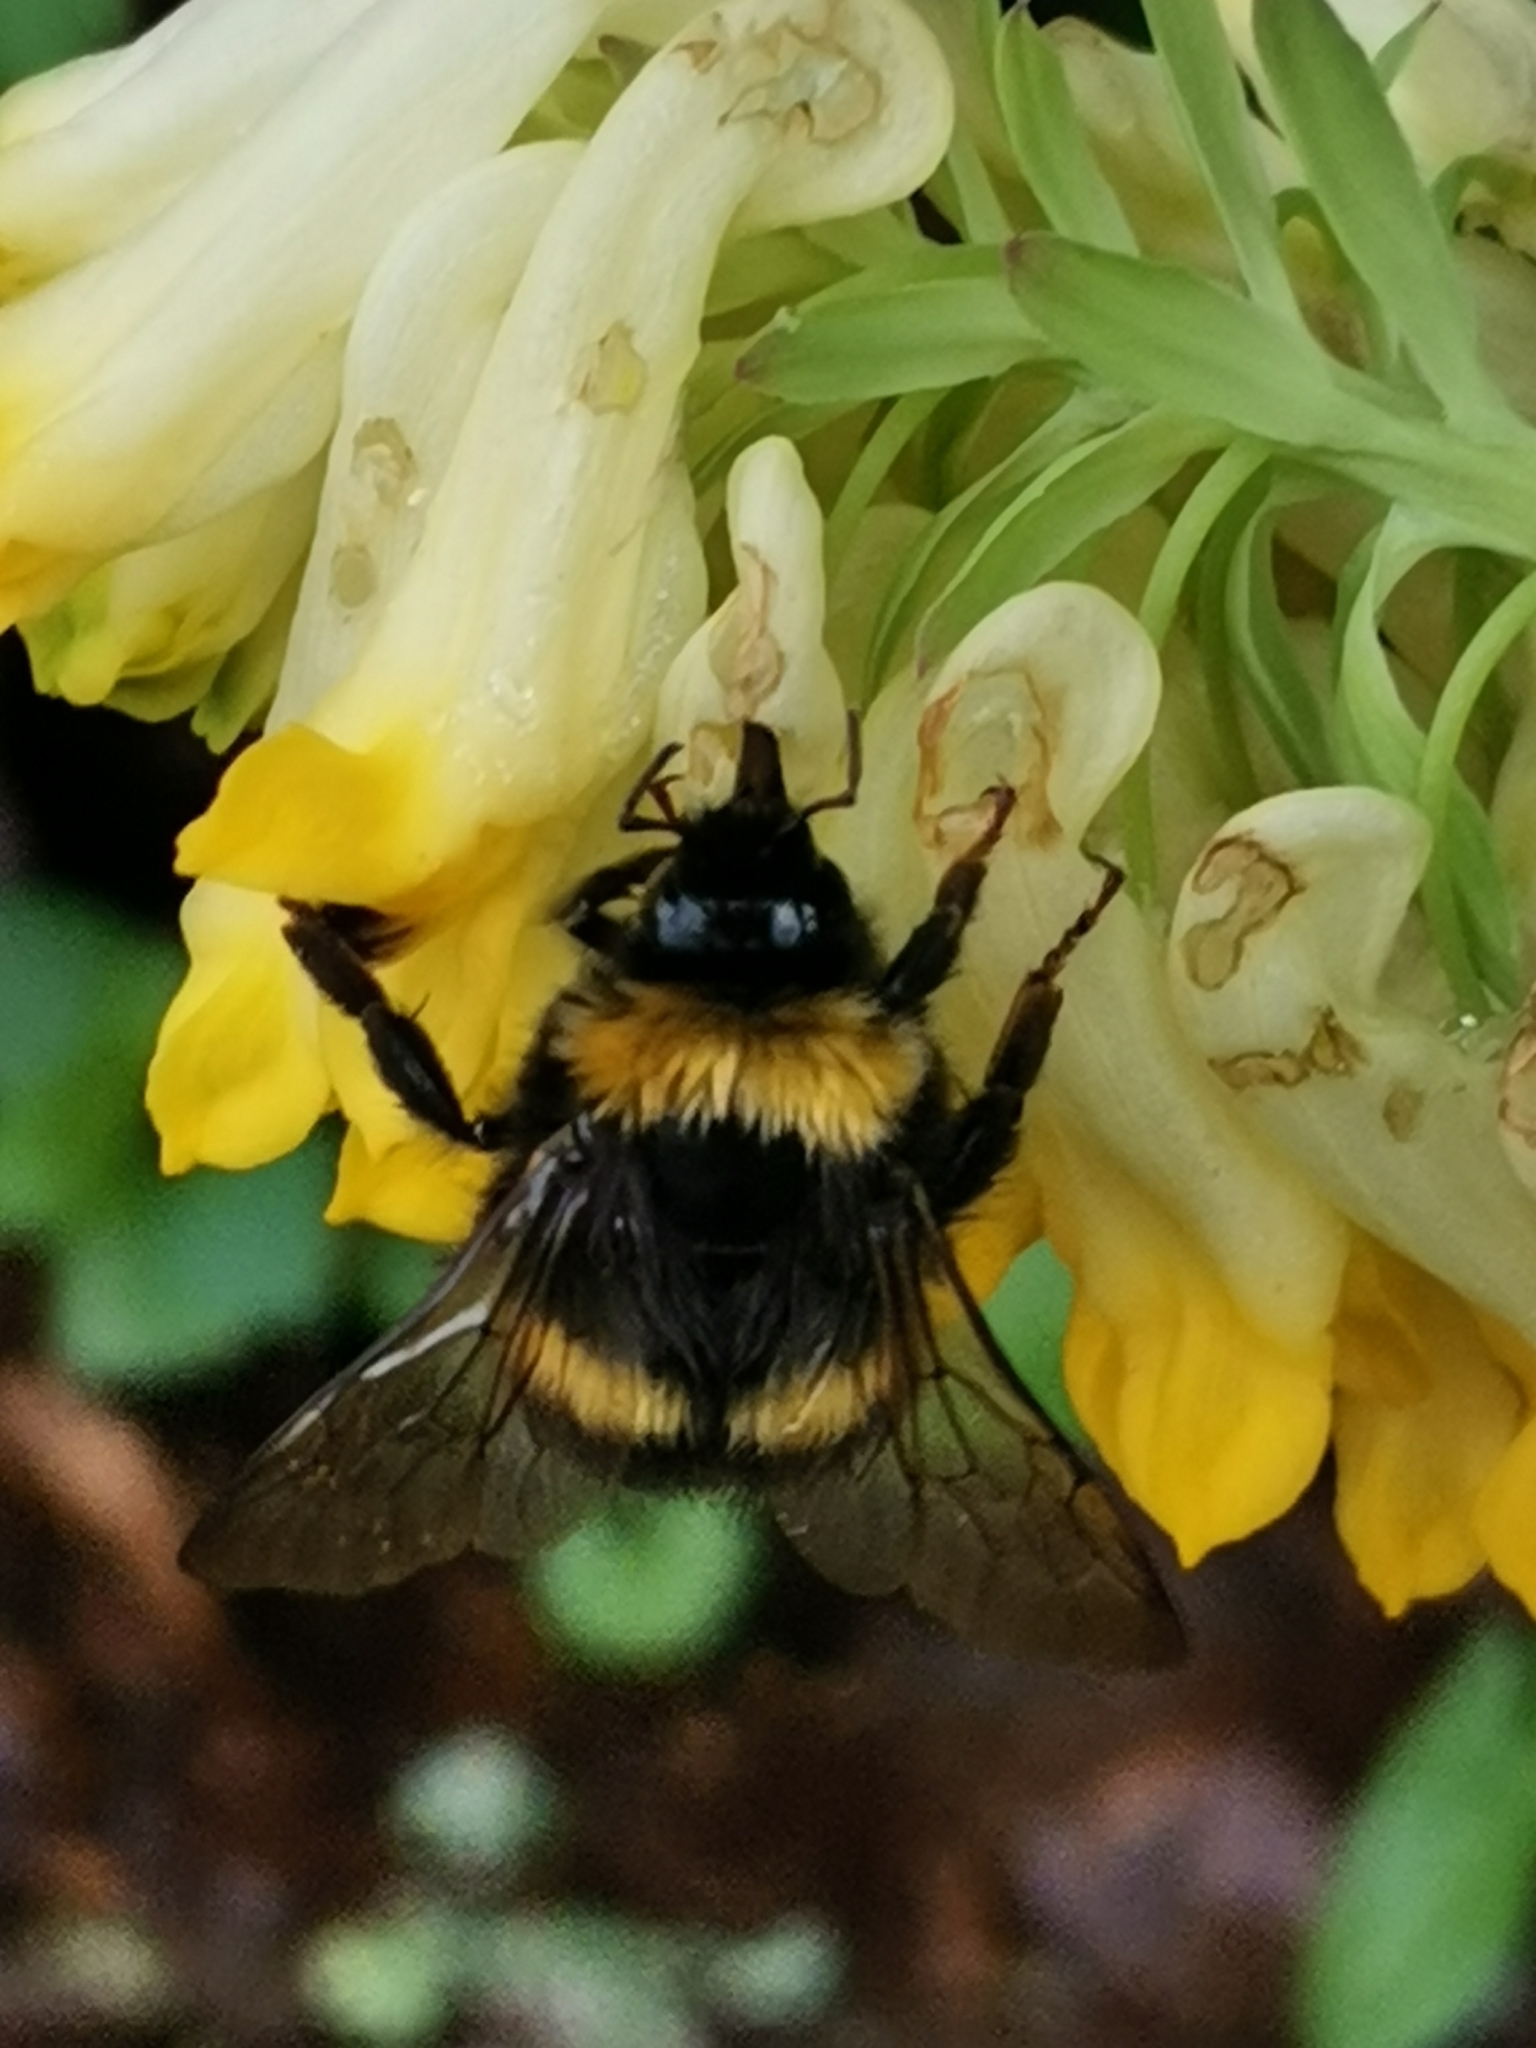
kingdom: Animalia
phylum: Arthropoda
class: Insecta
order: Hymenoptera
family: Apidae
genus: Bombus
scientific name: Bombus soroeensis
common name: Broken-belted humble-bee
